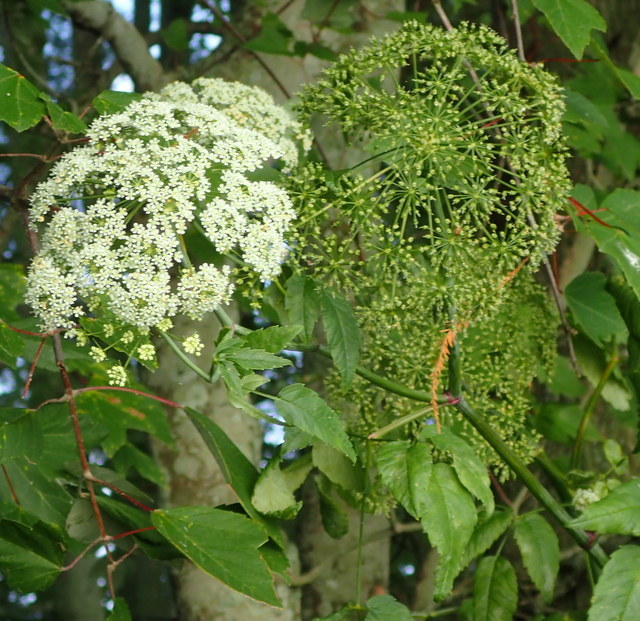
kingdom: Plantae
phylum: Tracheophyta
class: Magnoliopsida
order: Apiales
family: Apiaceae
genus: Cicuta
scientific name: Cicuta maculata
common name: Spotted cowbane
